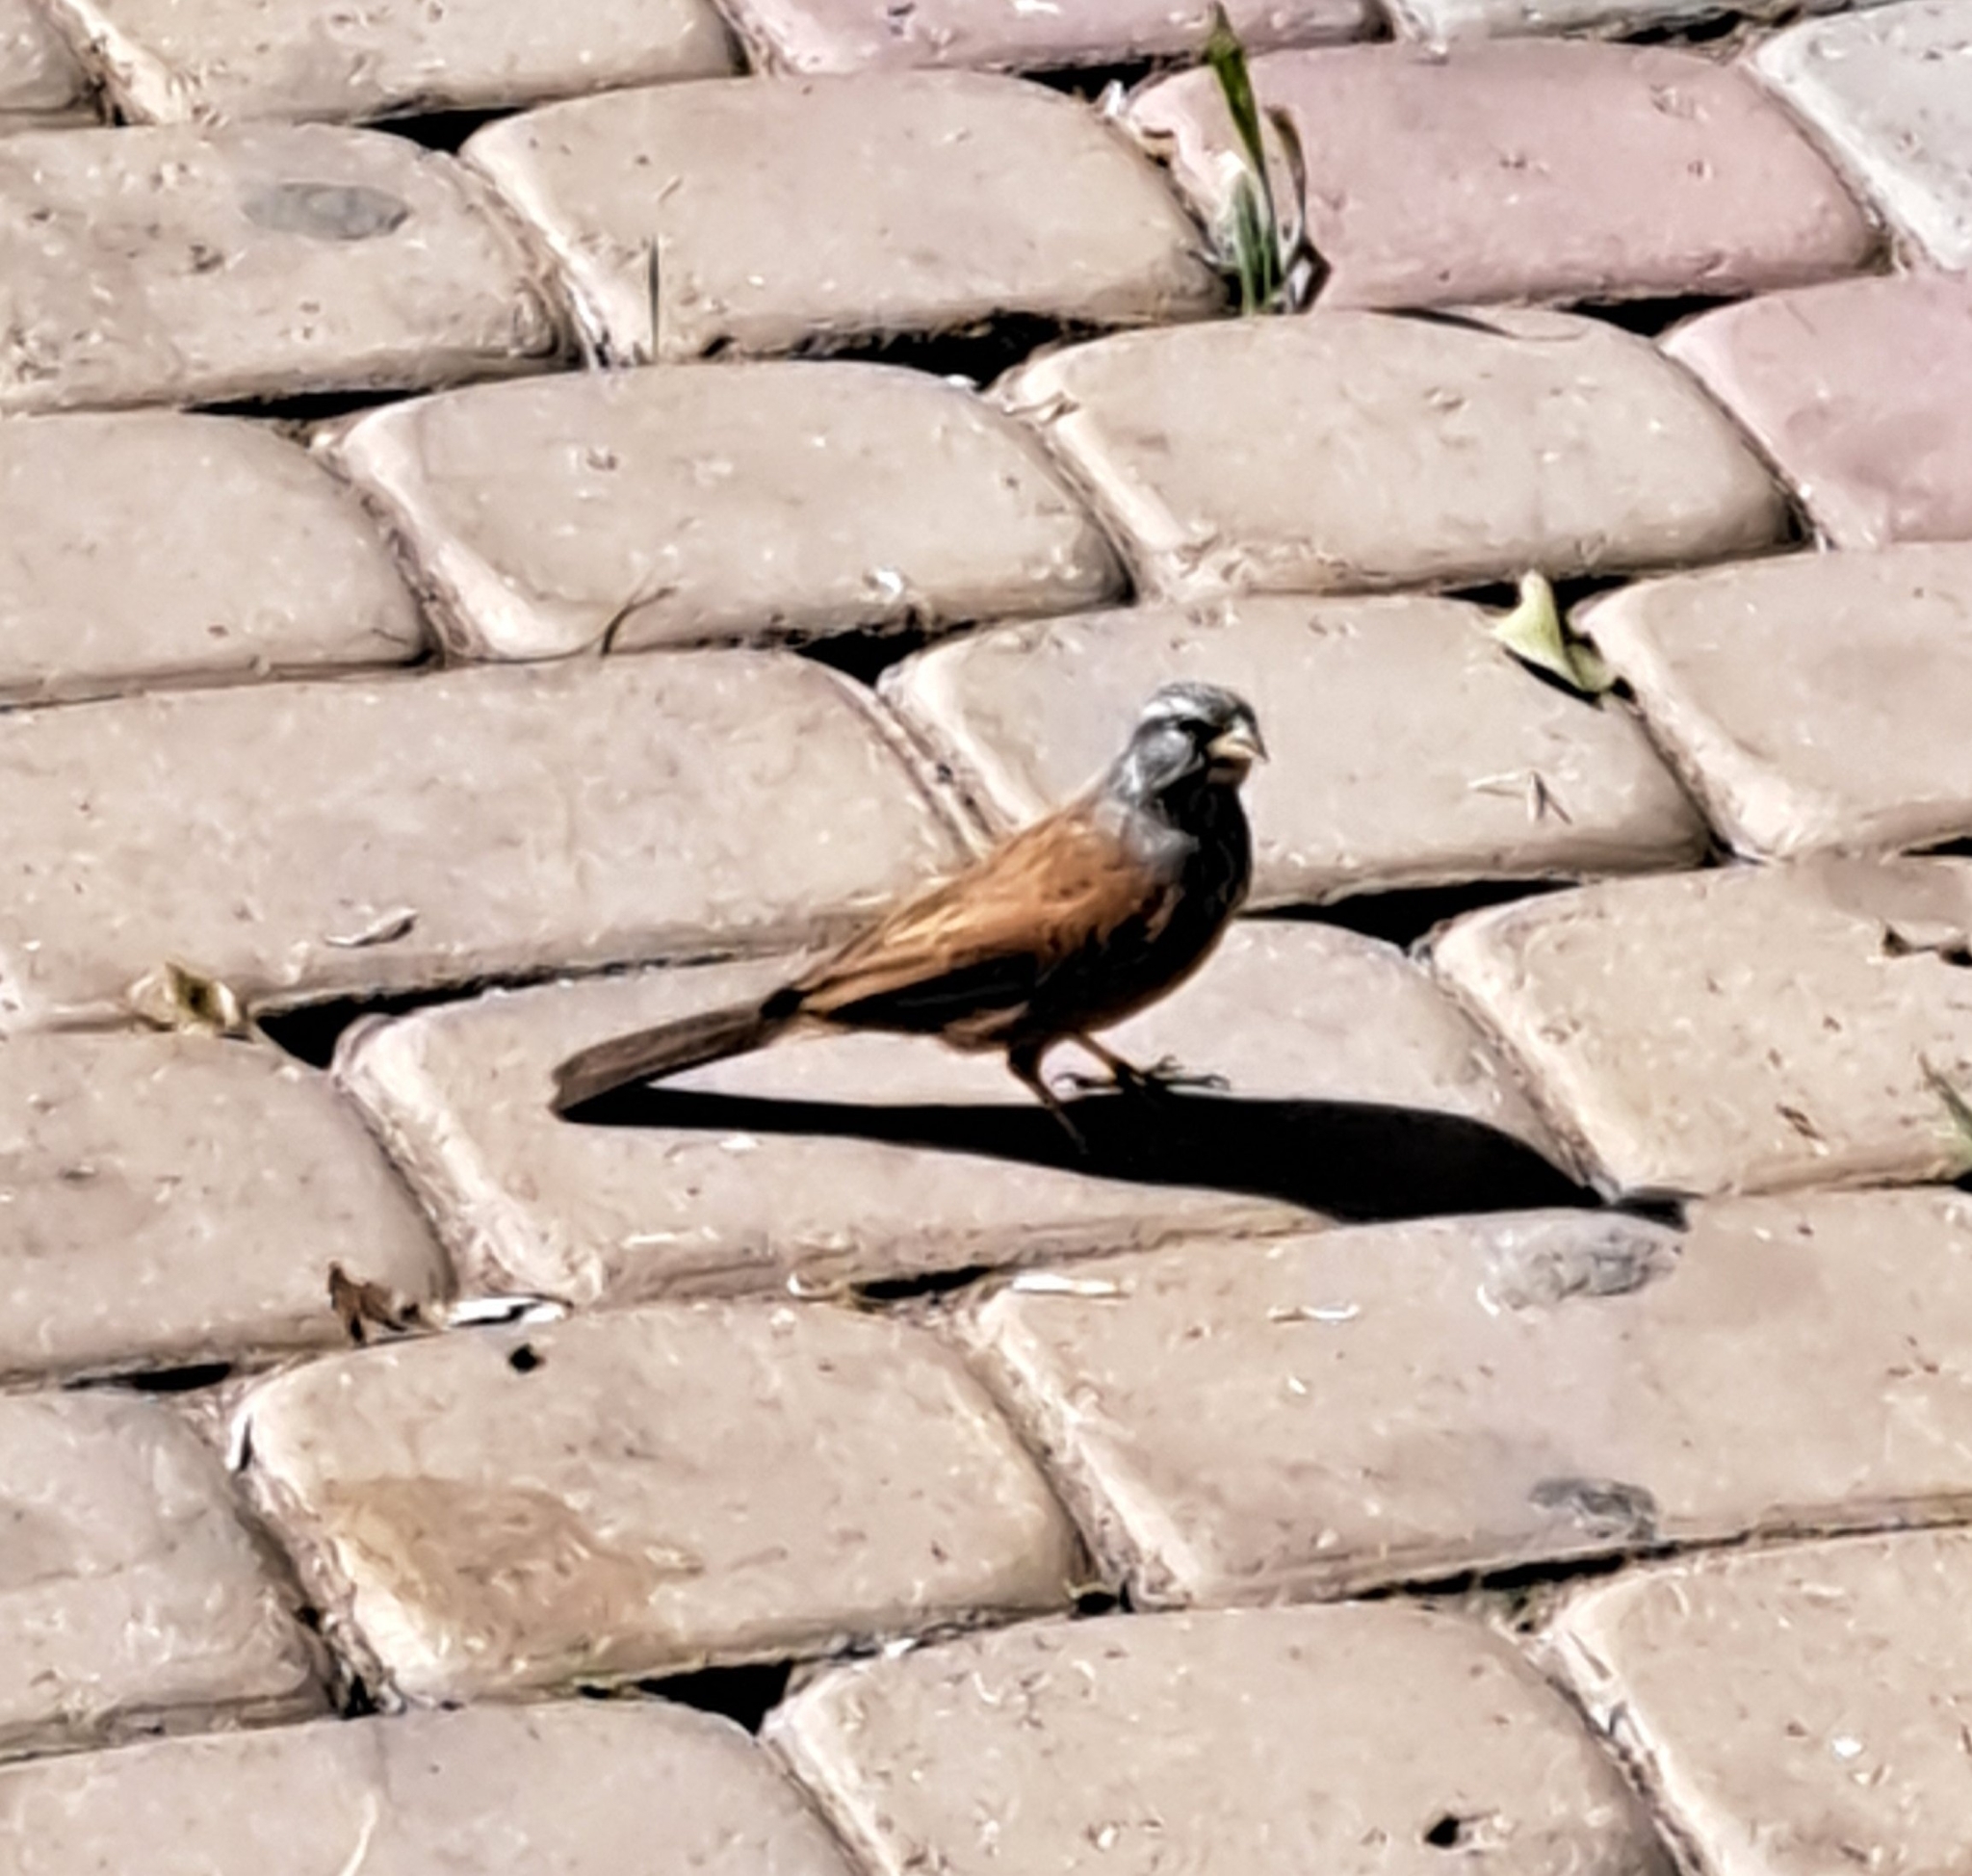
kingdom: Animalia
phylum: Chordata
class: Aves
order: Passeriformes
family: Emberizidae
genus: Emberiza
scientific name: Emberiza sahari
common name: House bunting
